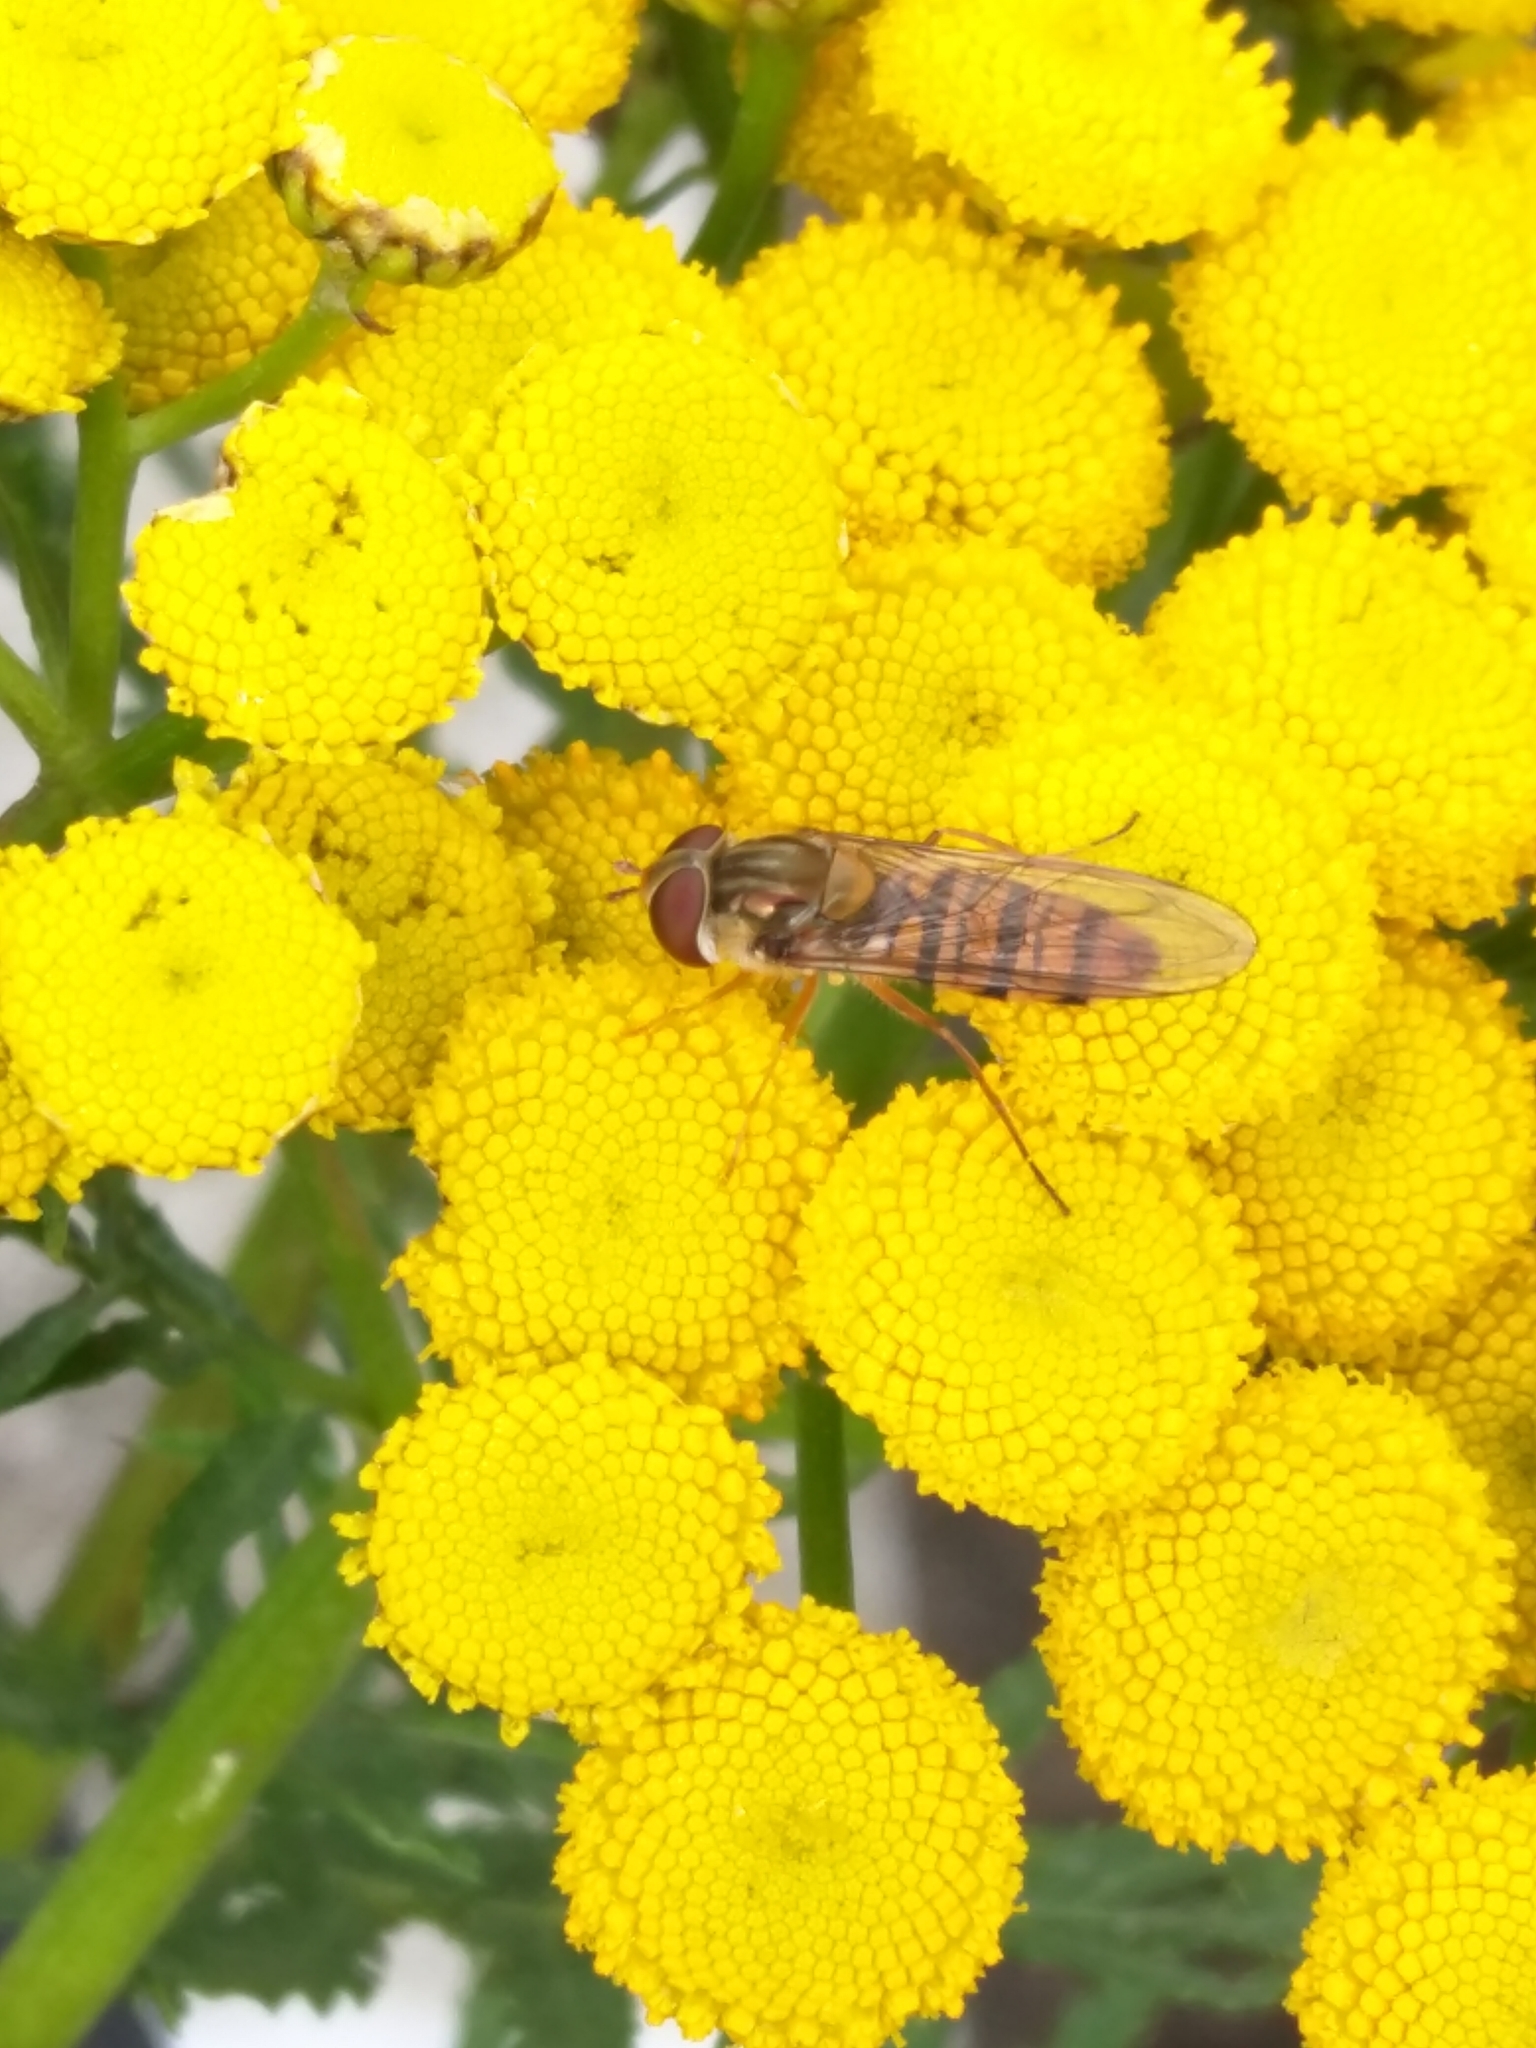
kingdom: Animalia
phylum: Arthropoda
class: Insecta
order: Diptera
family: Syrphidae
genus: Episyrphus
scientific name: Episyrphus balteatus
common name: Marmalade hoverfly
